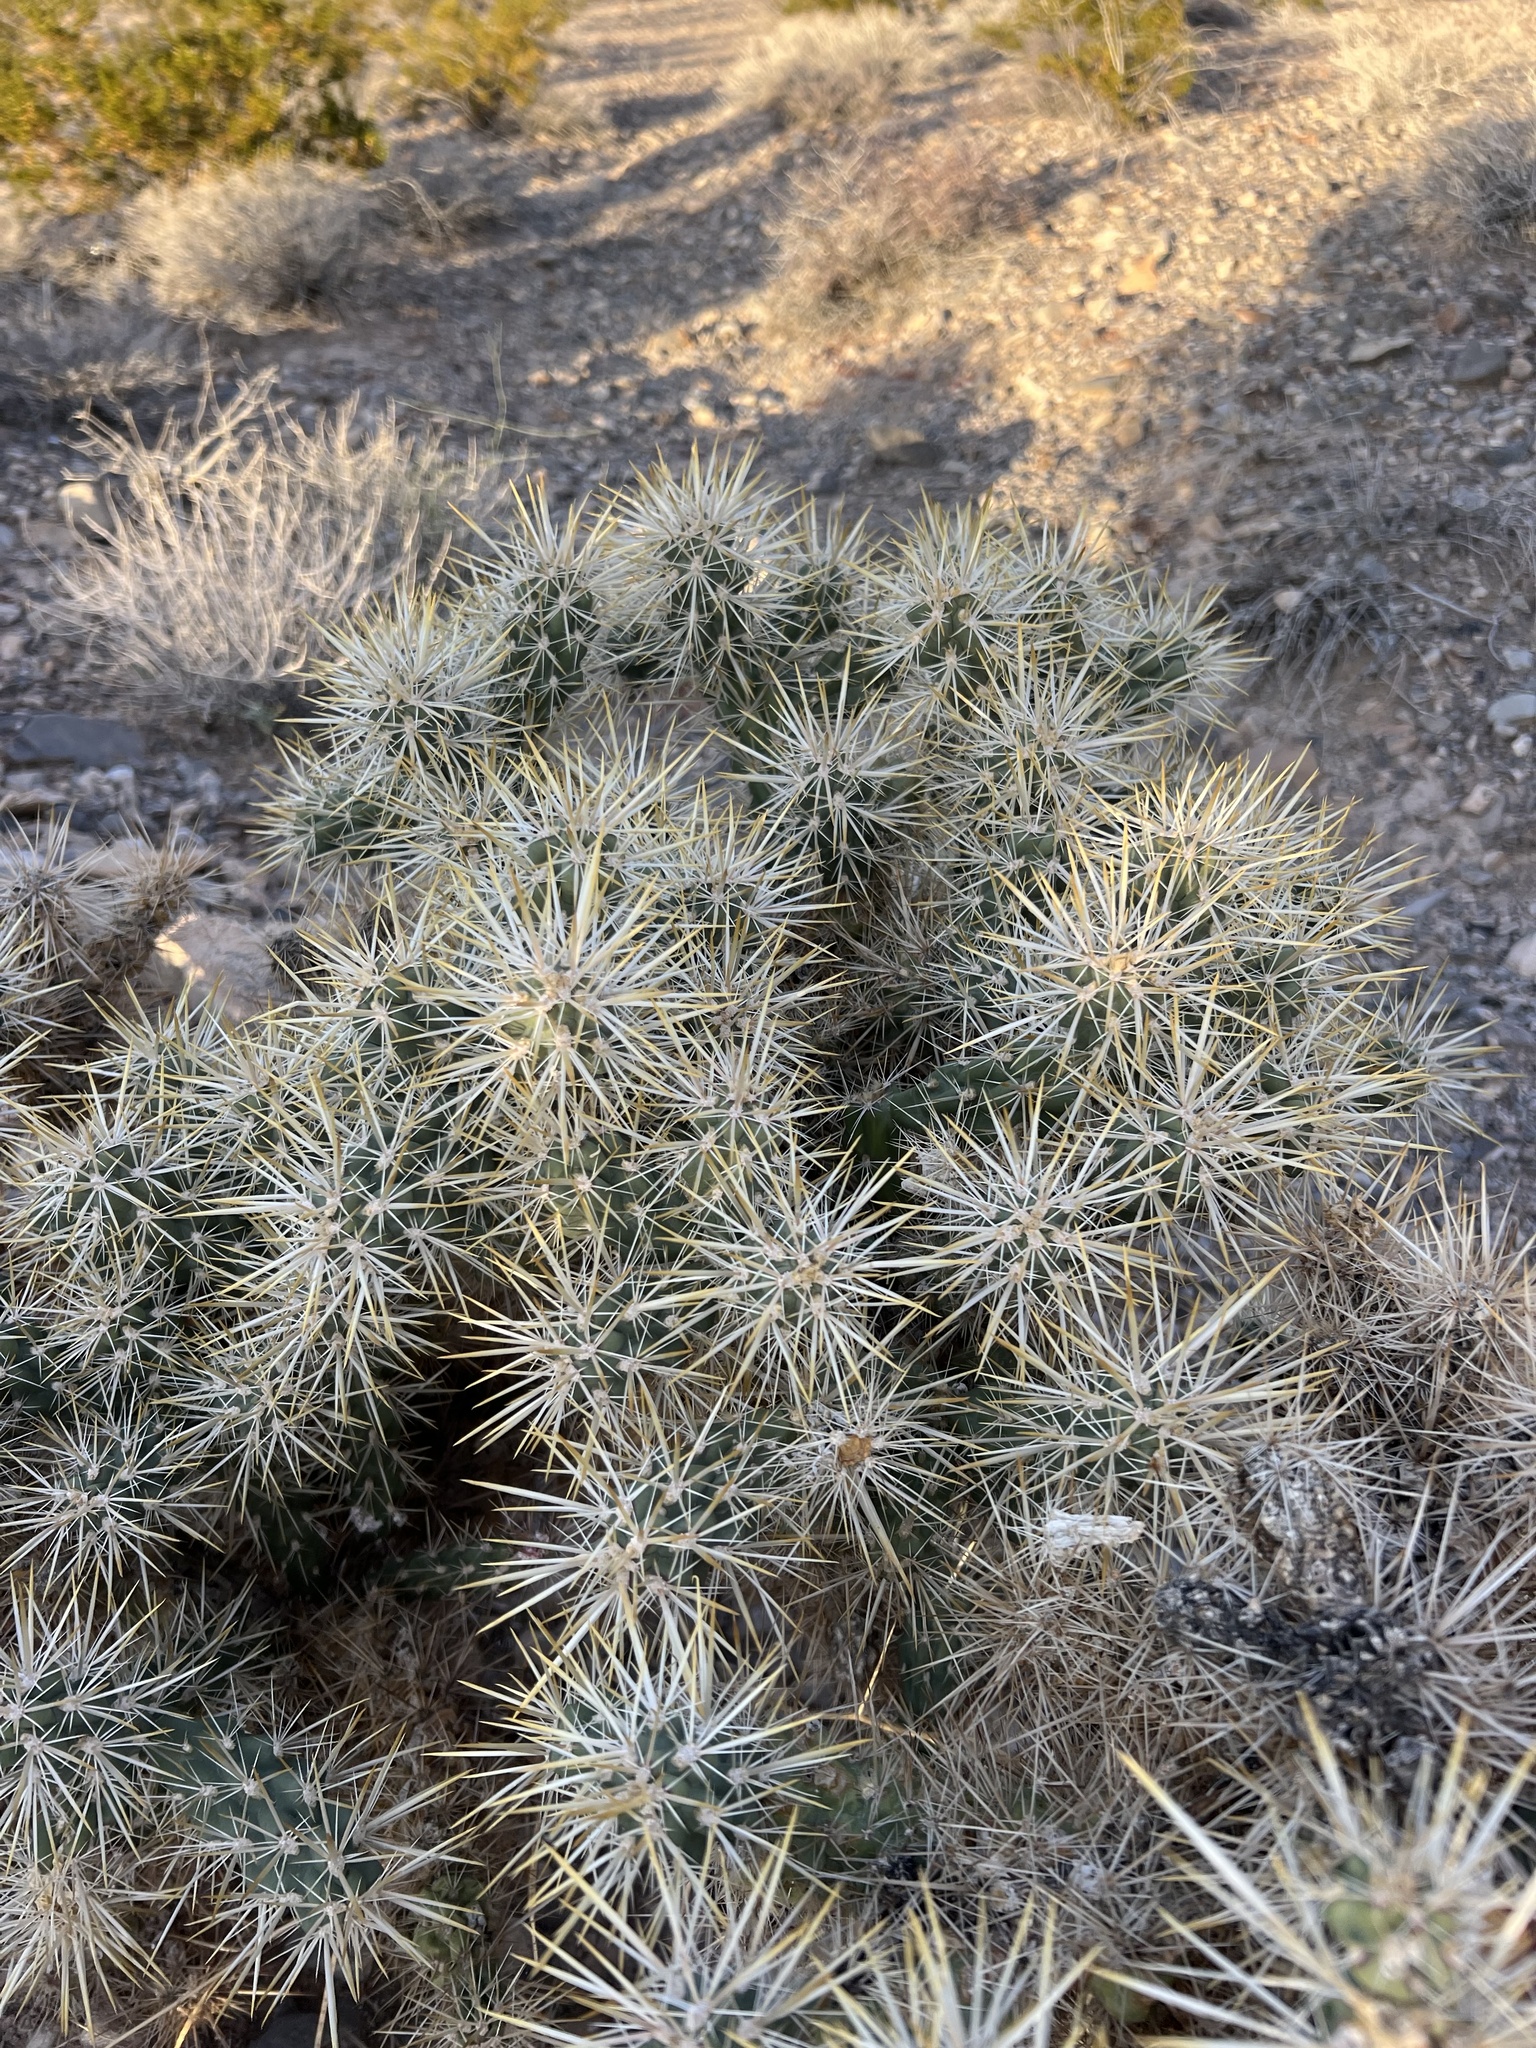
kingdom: Plantae
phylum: Tracheophyta
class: Magnoliopsida
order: Caryophyllales
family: Cactaceae
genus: Cylindropuntia
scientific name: Cylindropuntia echinocarpa
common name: Ground cholla
